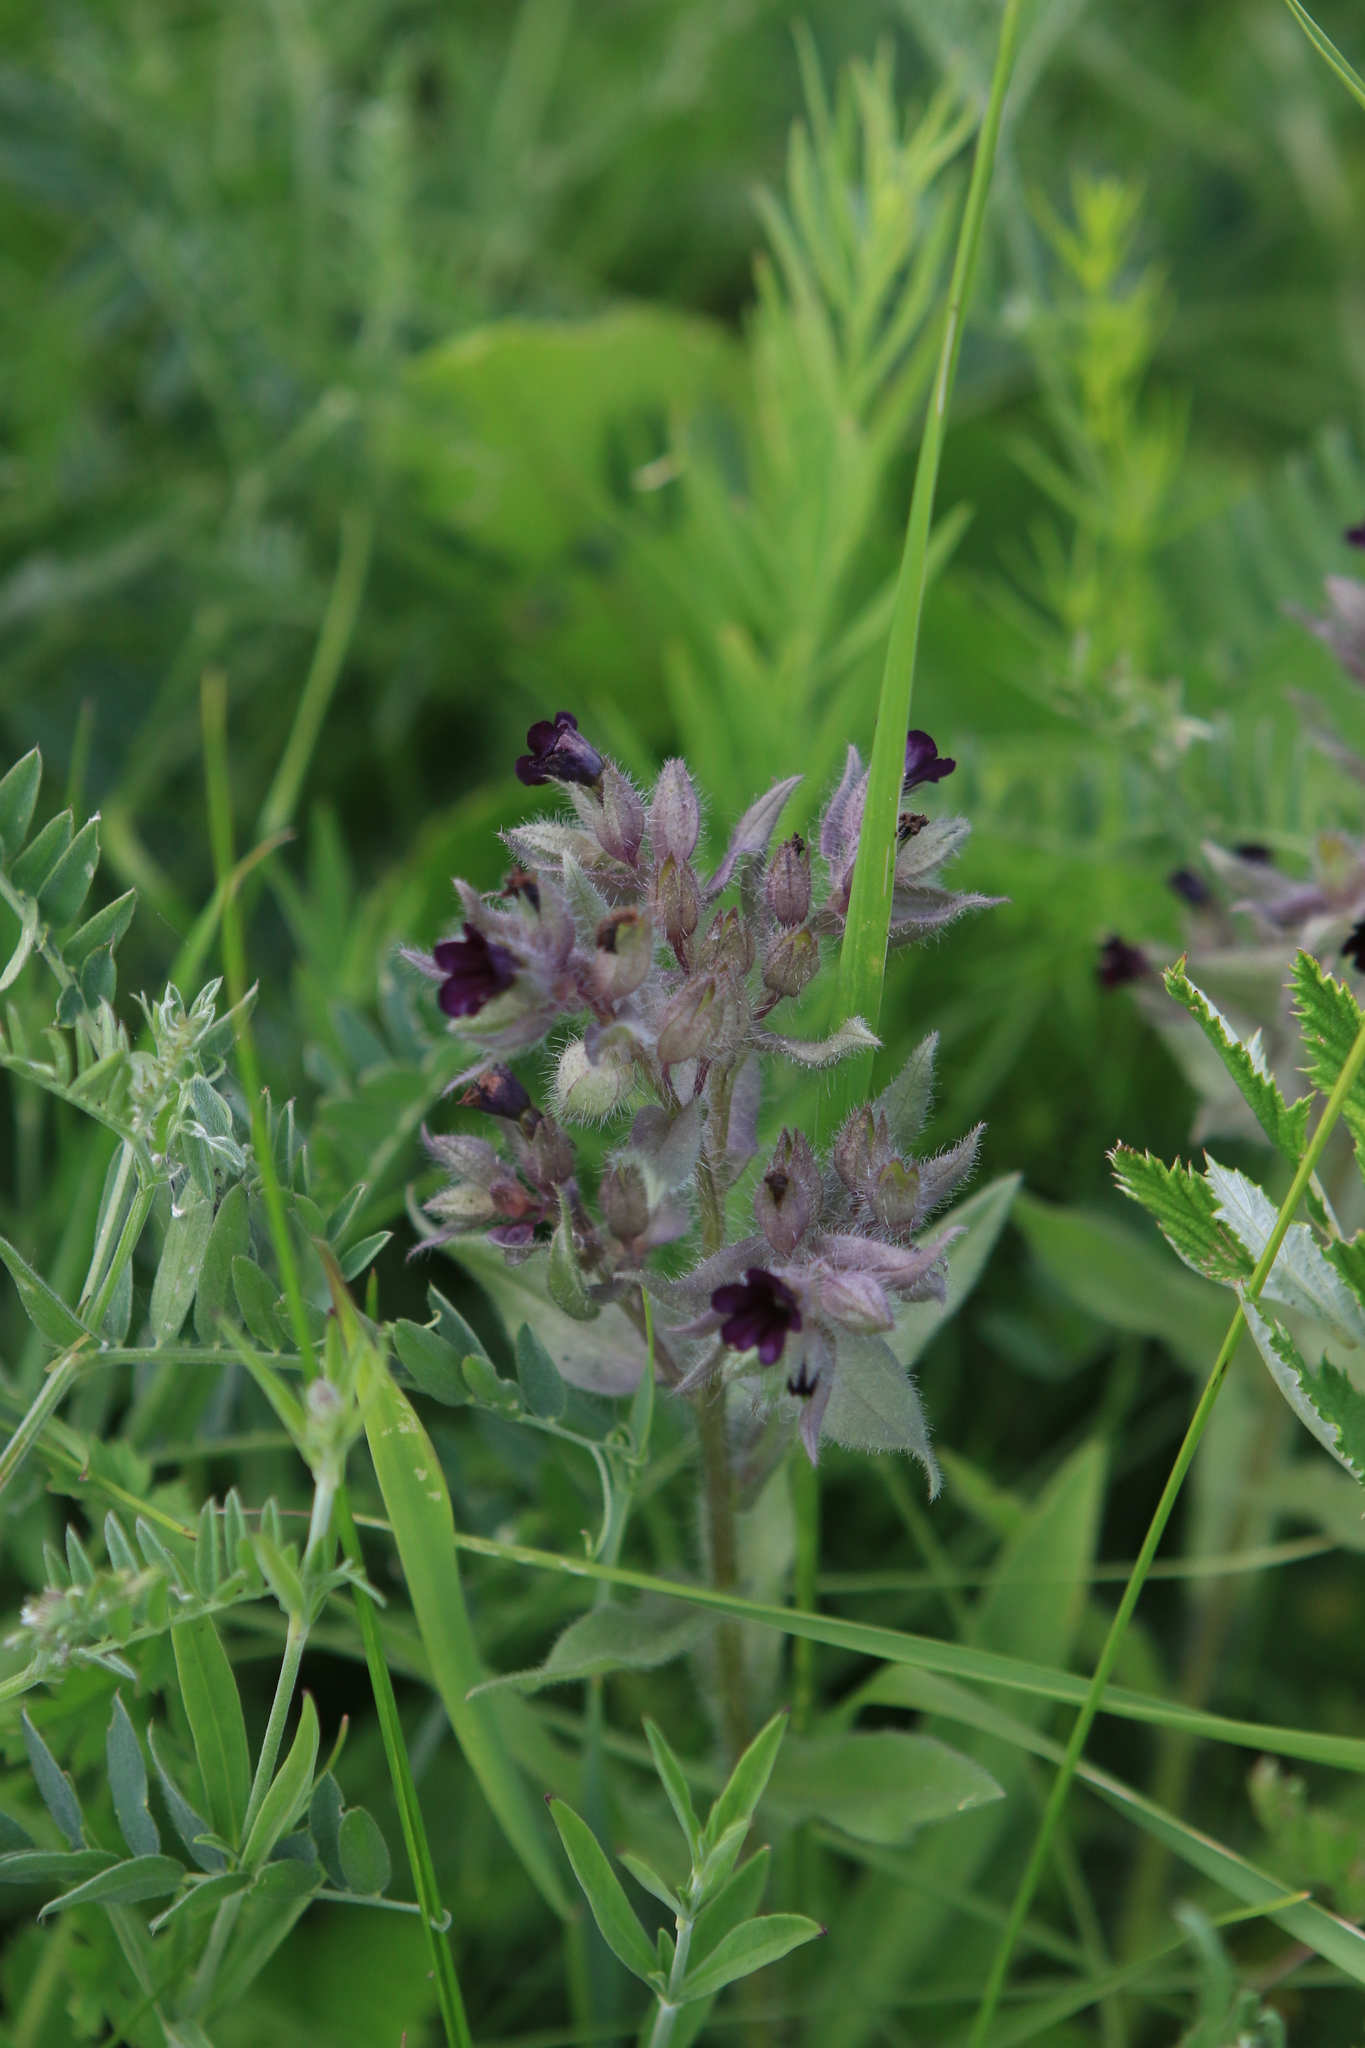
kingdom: Plantae
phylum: Tracheophyta
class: Magnoliopsida
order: Boraginales
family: Boraginaceae
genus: Nonea
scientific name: Nonea pulla
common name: Brown nonea
